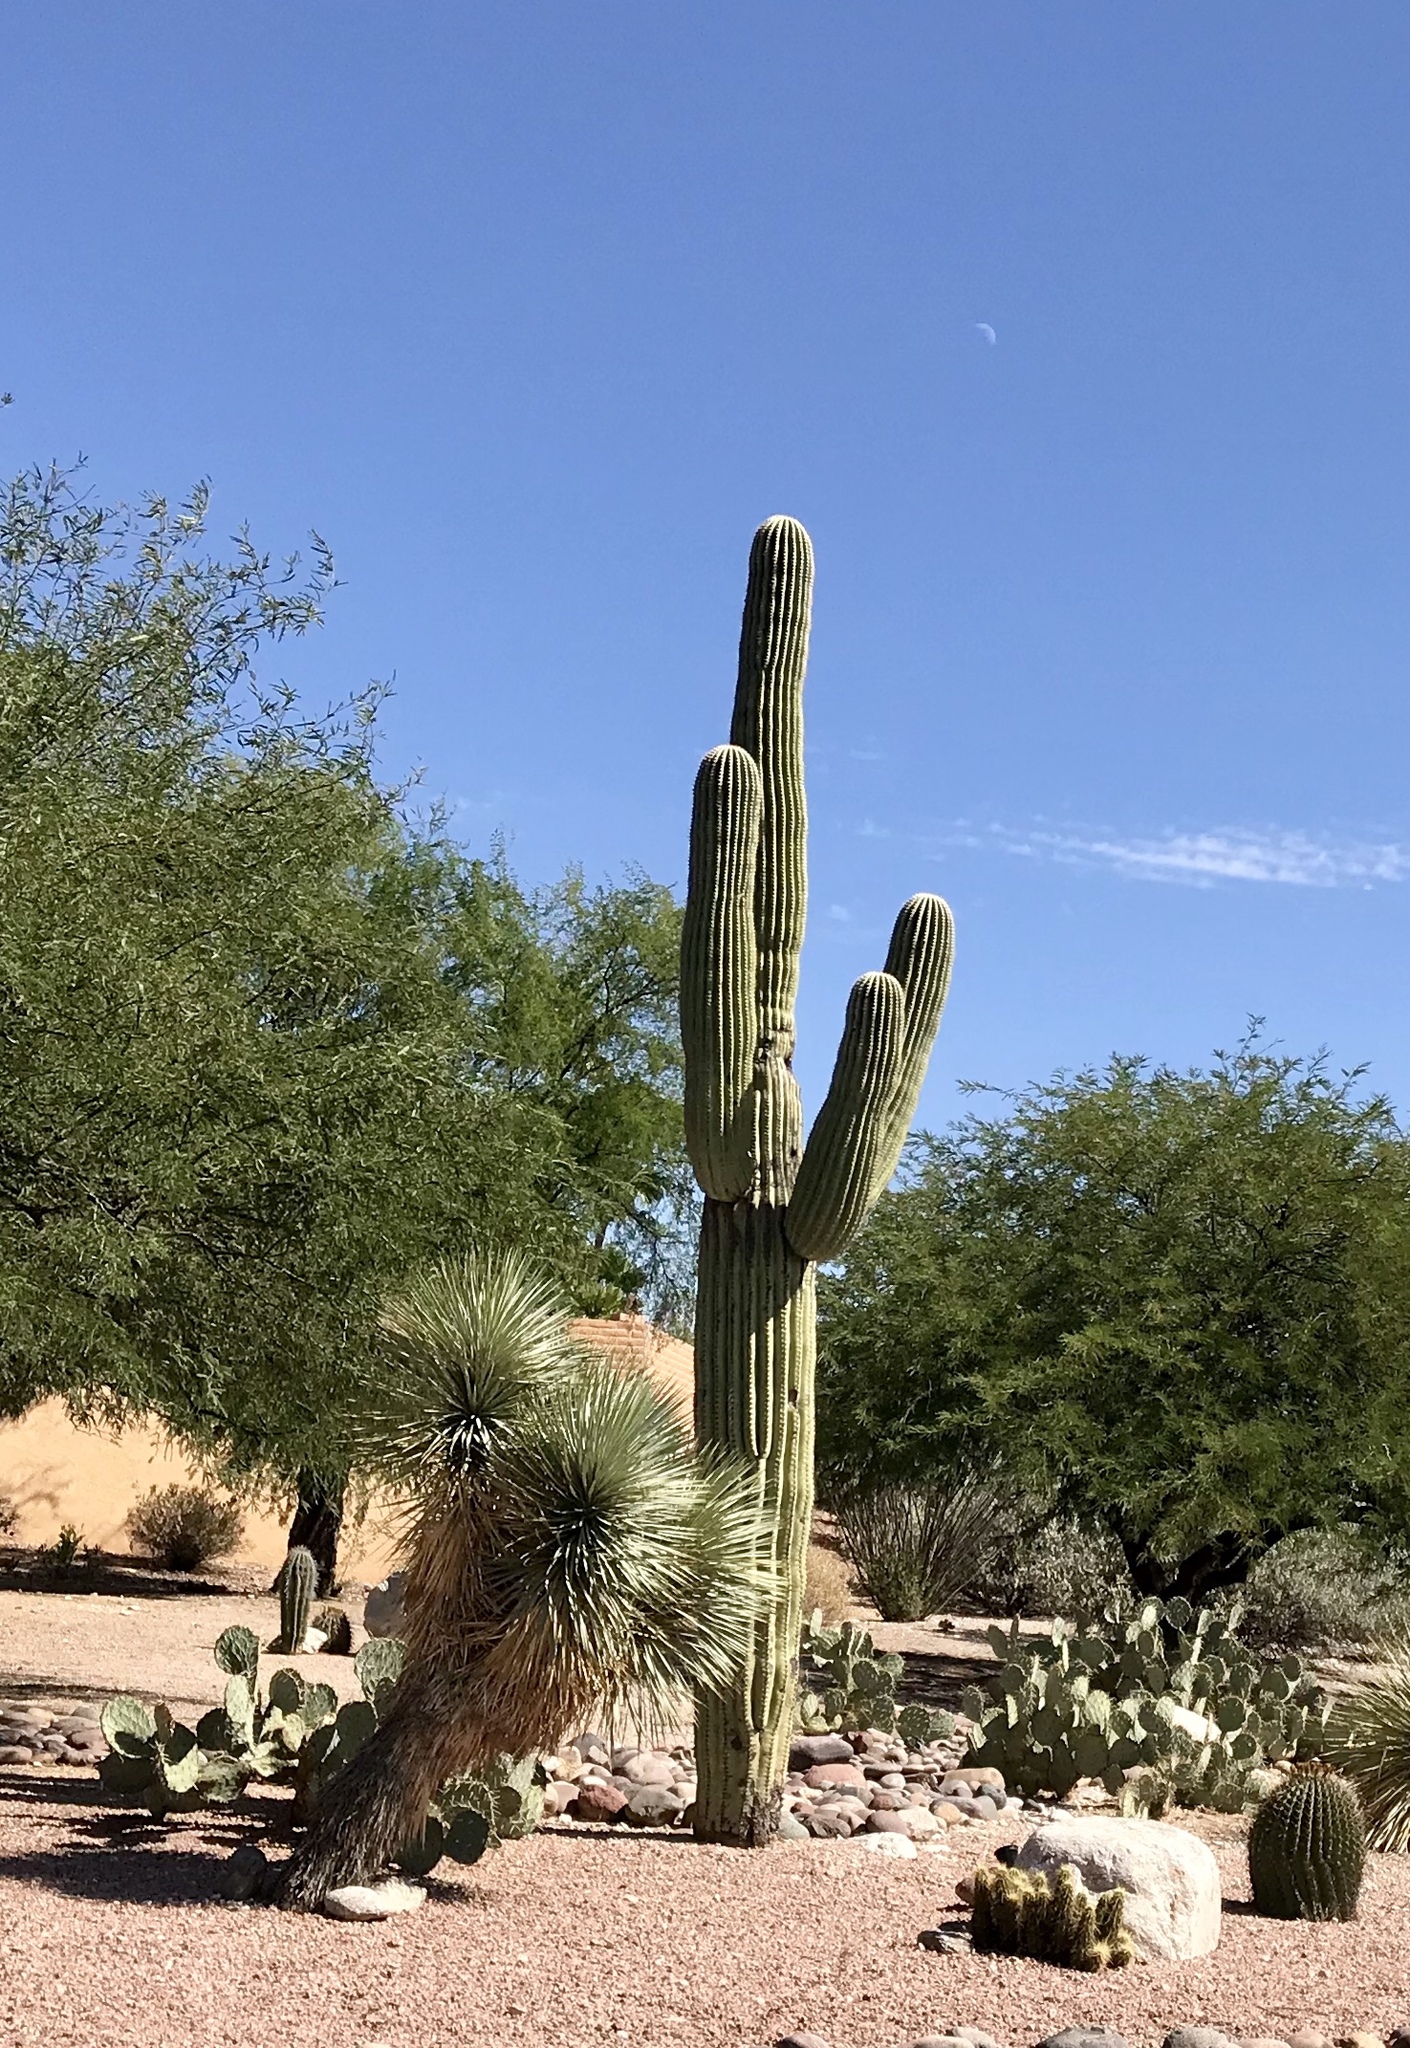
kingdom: Plantae
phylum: Tracheophyta
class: Magnoliopsida
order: Caryophyllales
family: Cactaceae
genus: Carnegiea
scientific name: Carnegiea gigantea
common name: Saguaro
